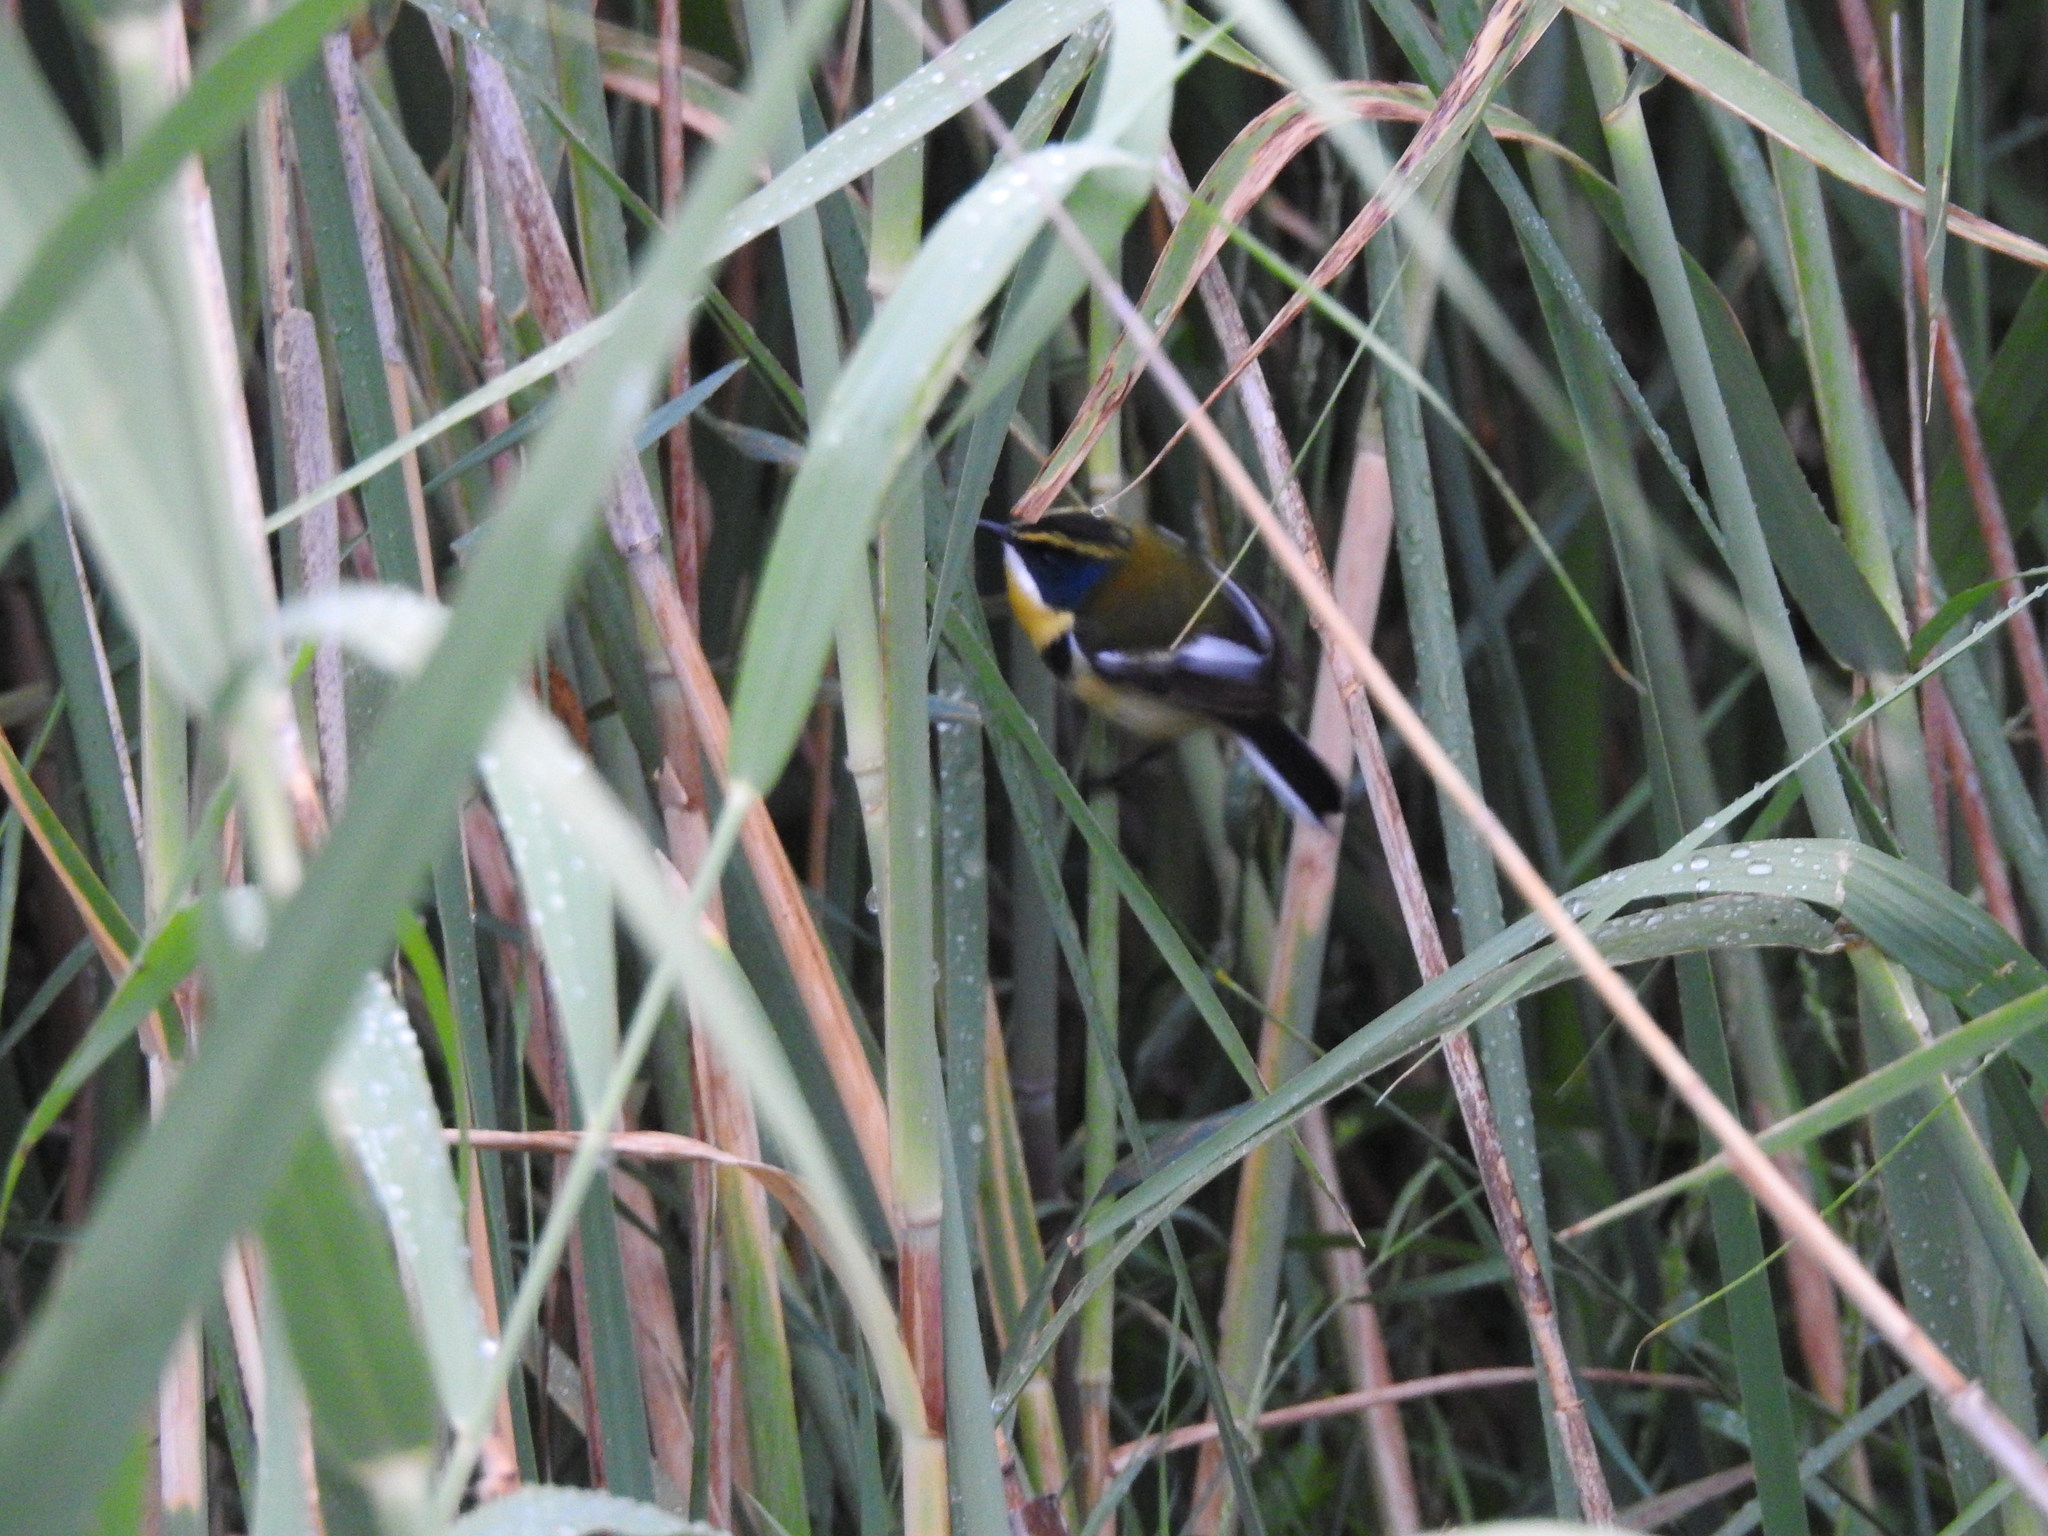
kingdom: Animalia
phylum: Chordata
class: Aves
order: Passeriformes
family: Tyrannidae
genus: Tachuris
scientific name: Tachuris rubrigastra
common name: Many-colored rush tyrant
